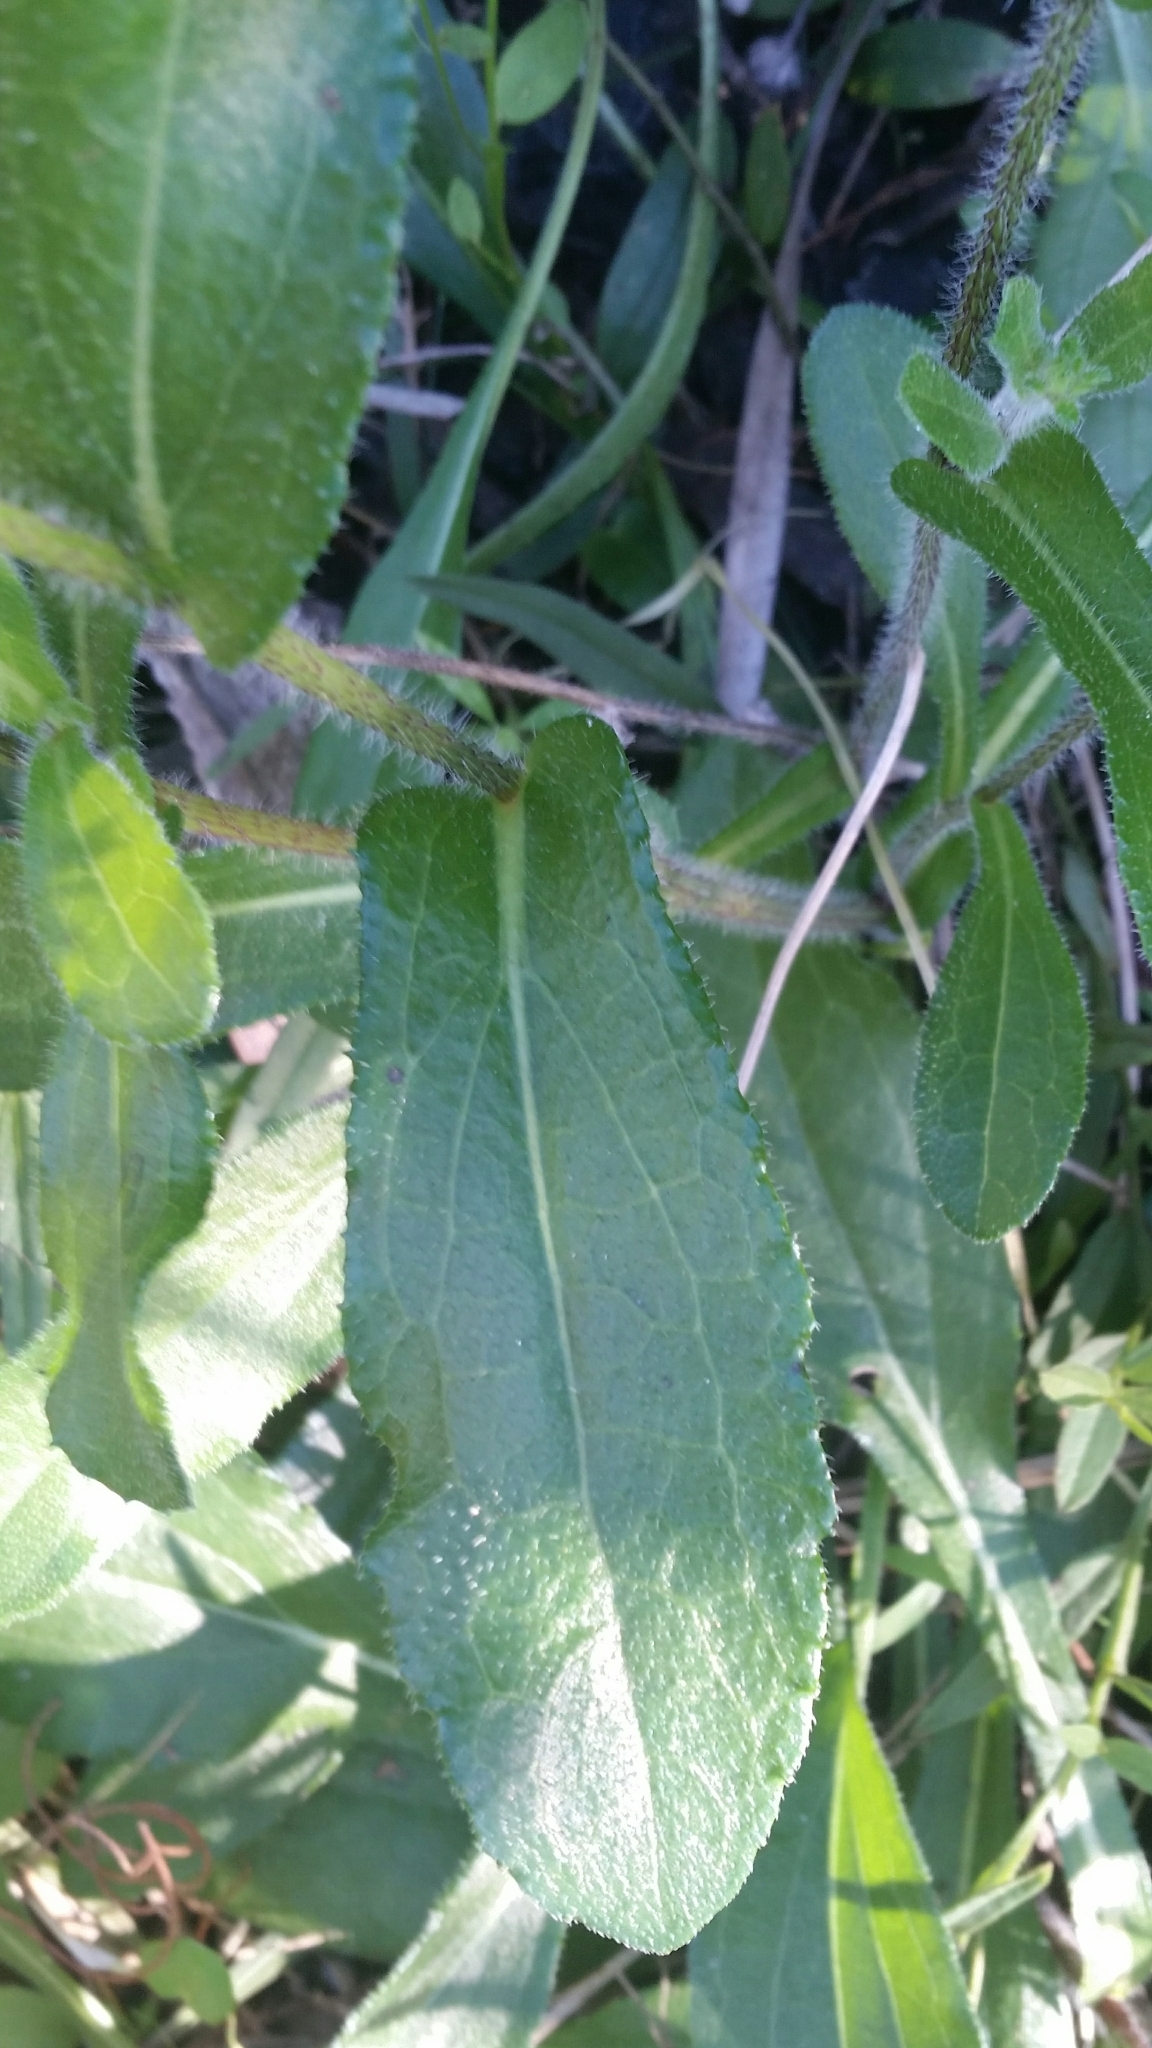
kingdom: Plantae
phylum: Tracheophyta
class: Magnoliopsida
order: Asterales
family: Asteraceae
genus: Rudbeckia
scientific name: Rudbeckia hirta
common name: Black-eyed-susan
